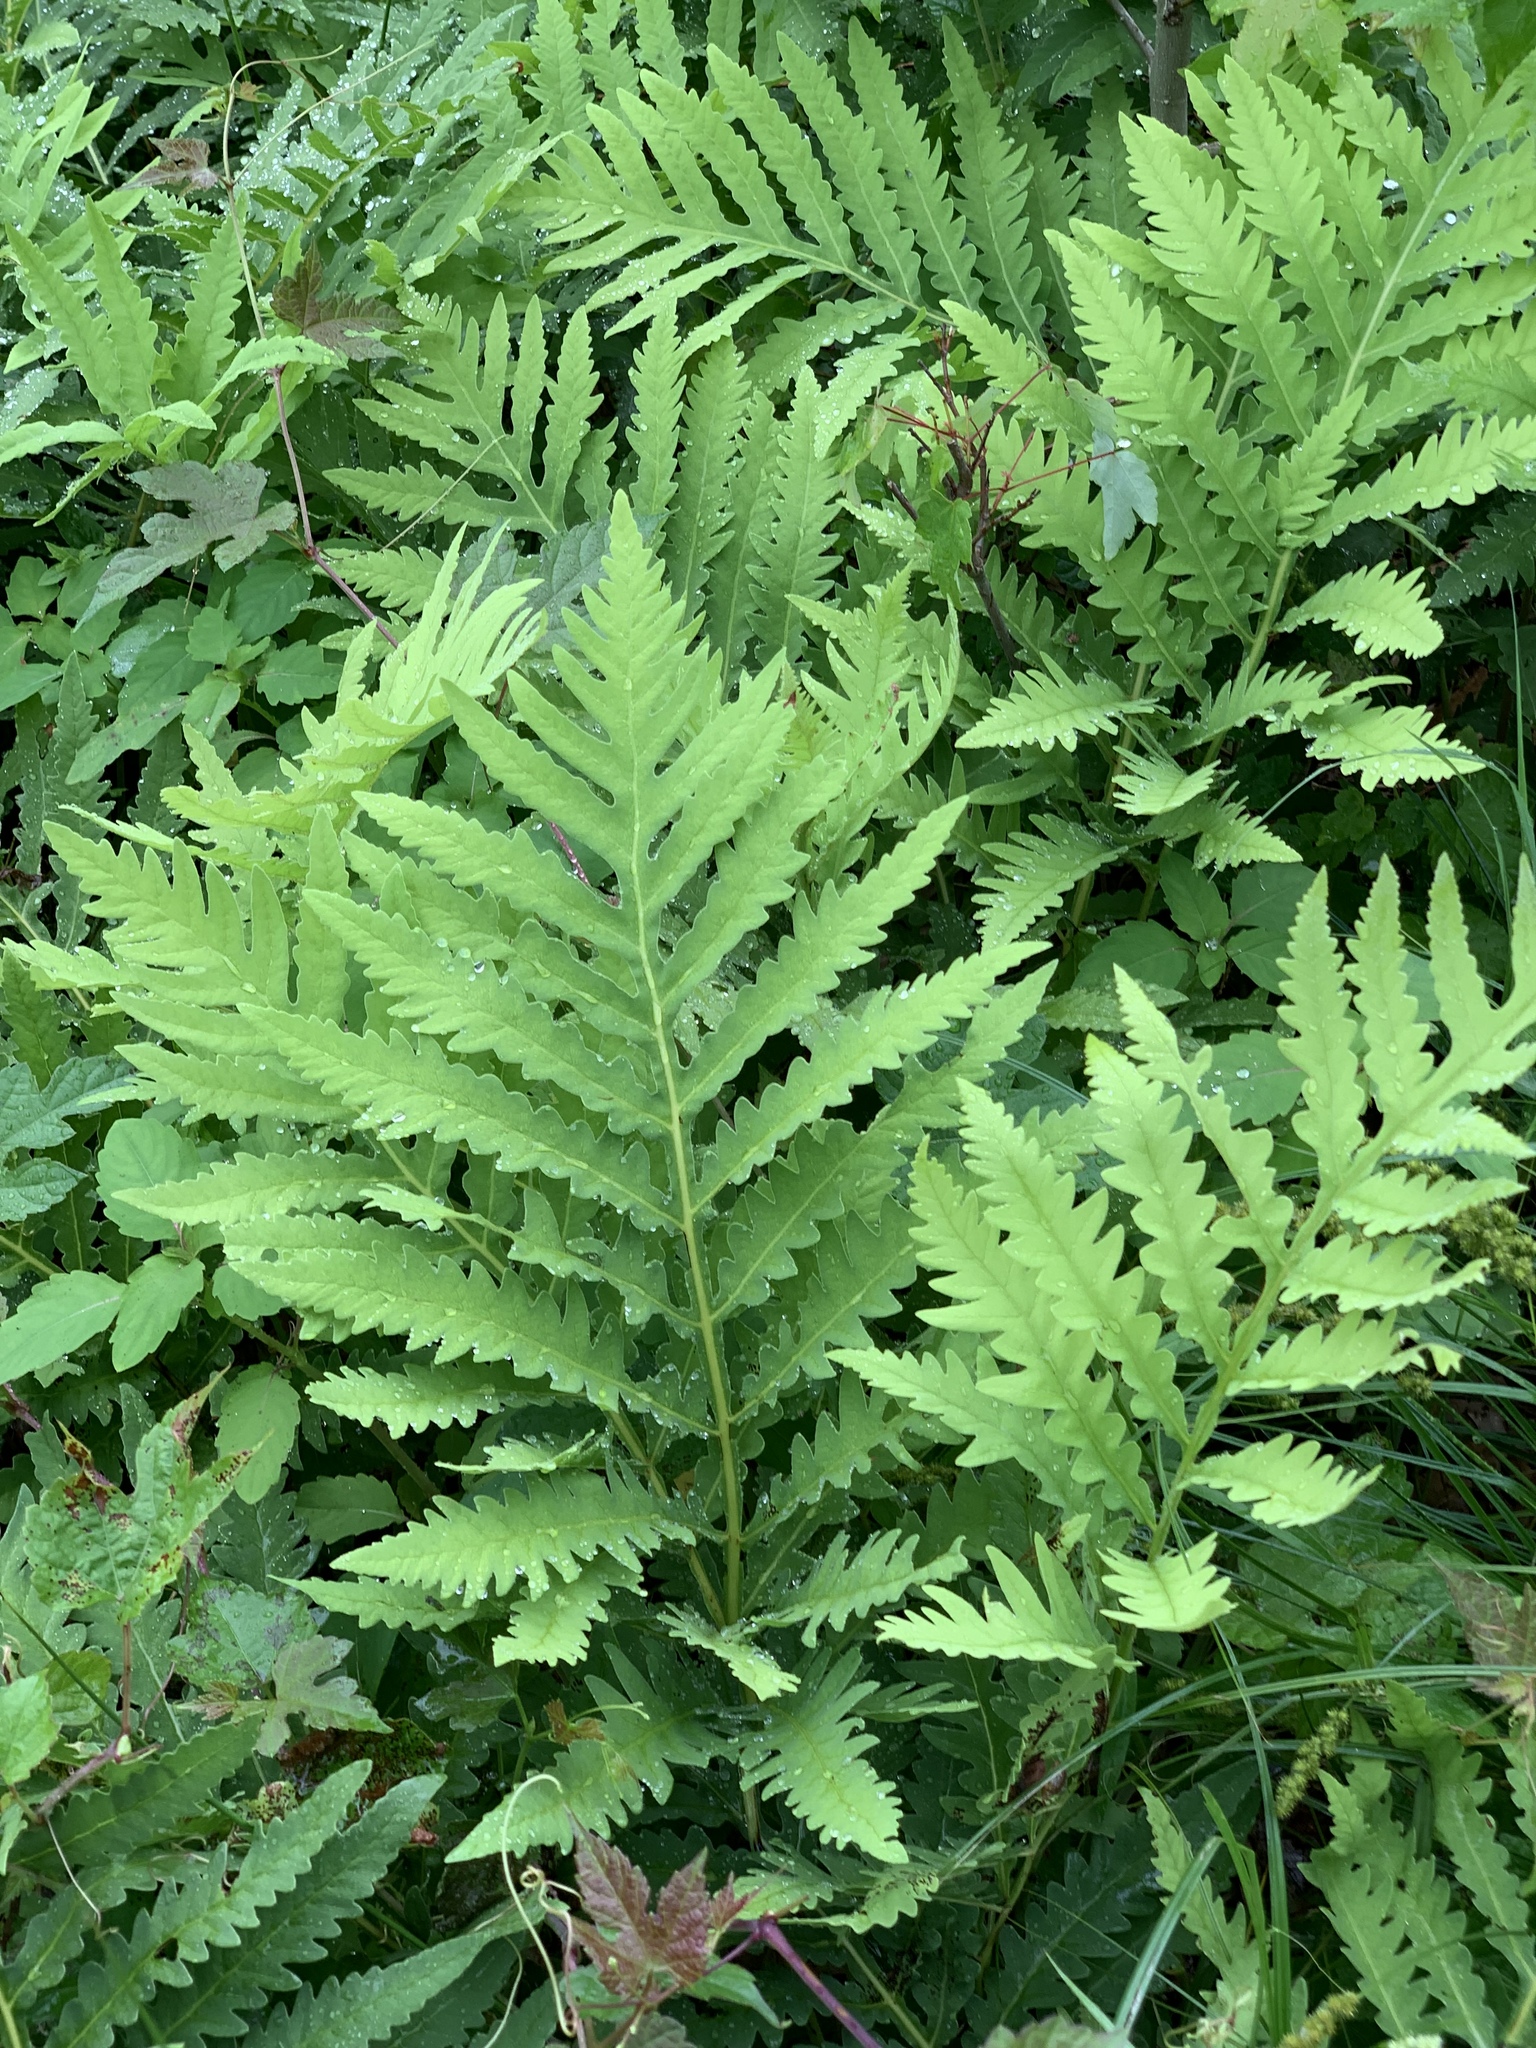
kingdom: Plantae
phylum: Tracheophyta
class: Polypodiopsida
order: Polypodiales
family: Onocleaceae
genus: Onoclea
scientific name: Onoclea sensibilis
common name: Sensitive fern
